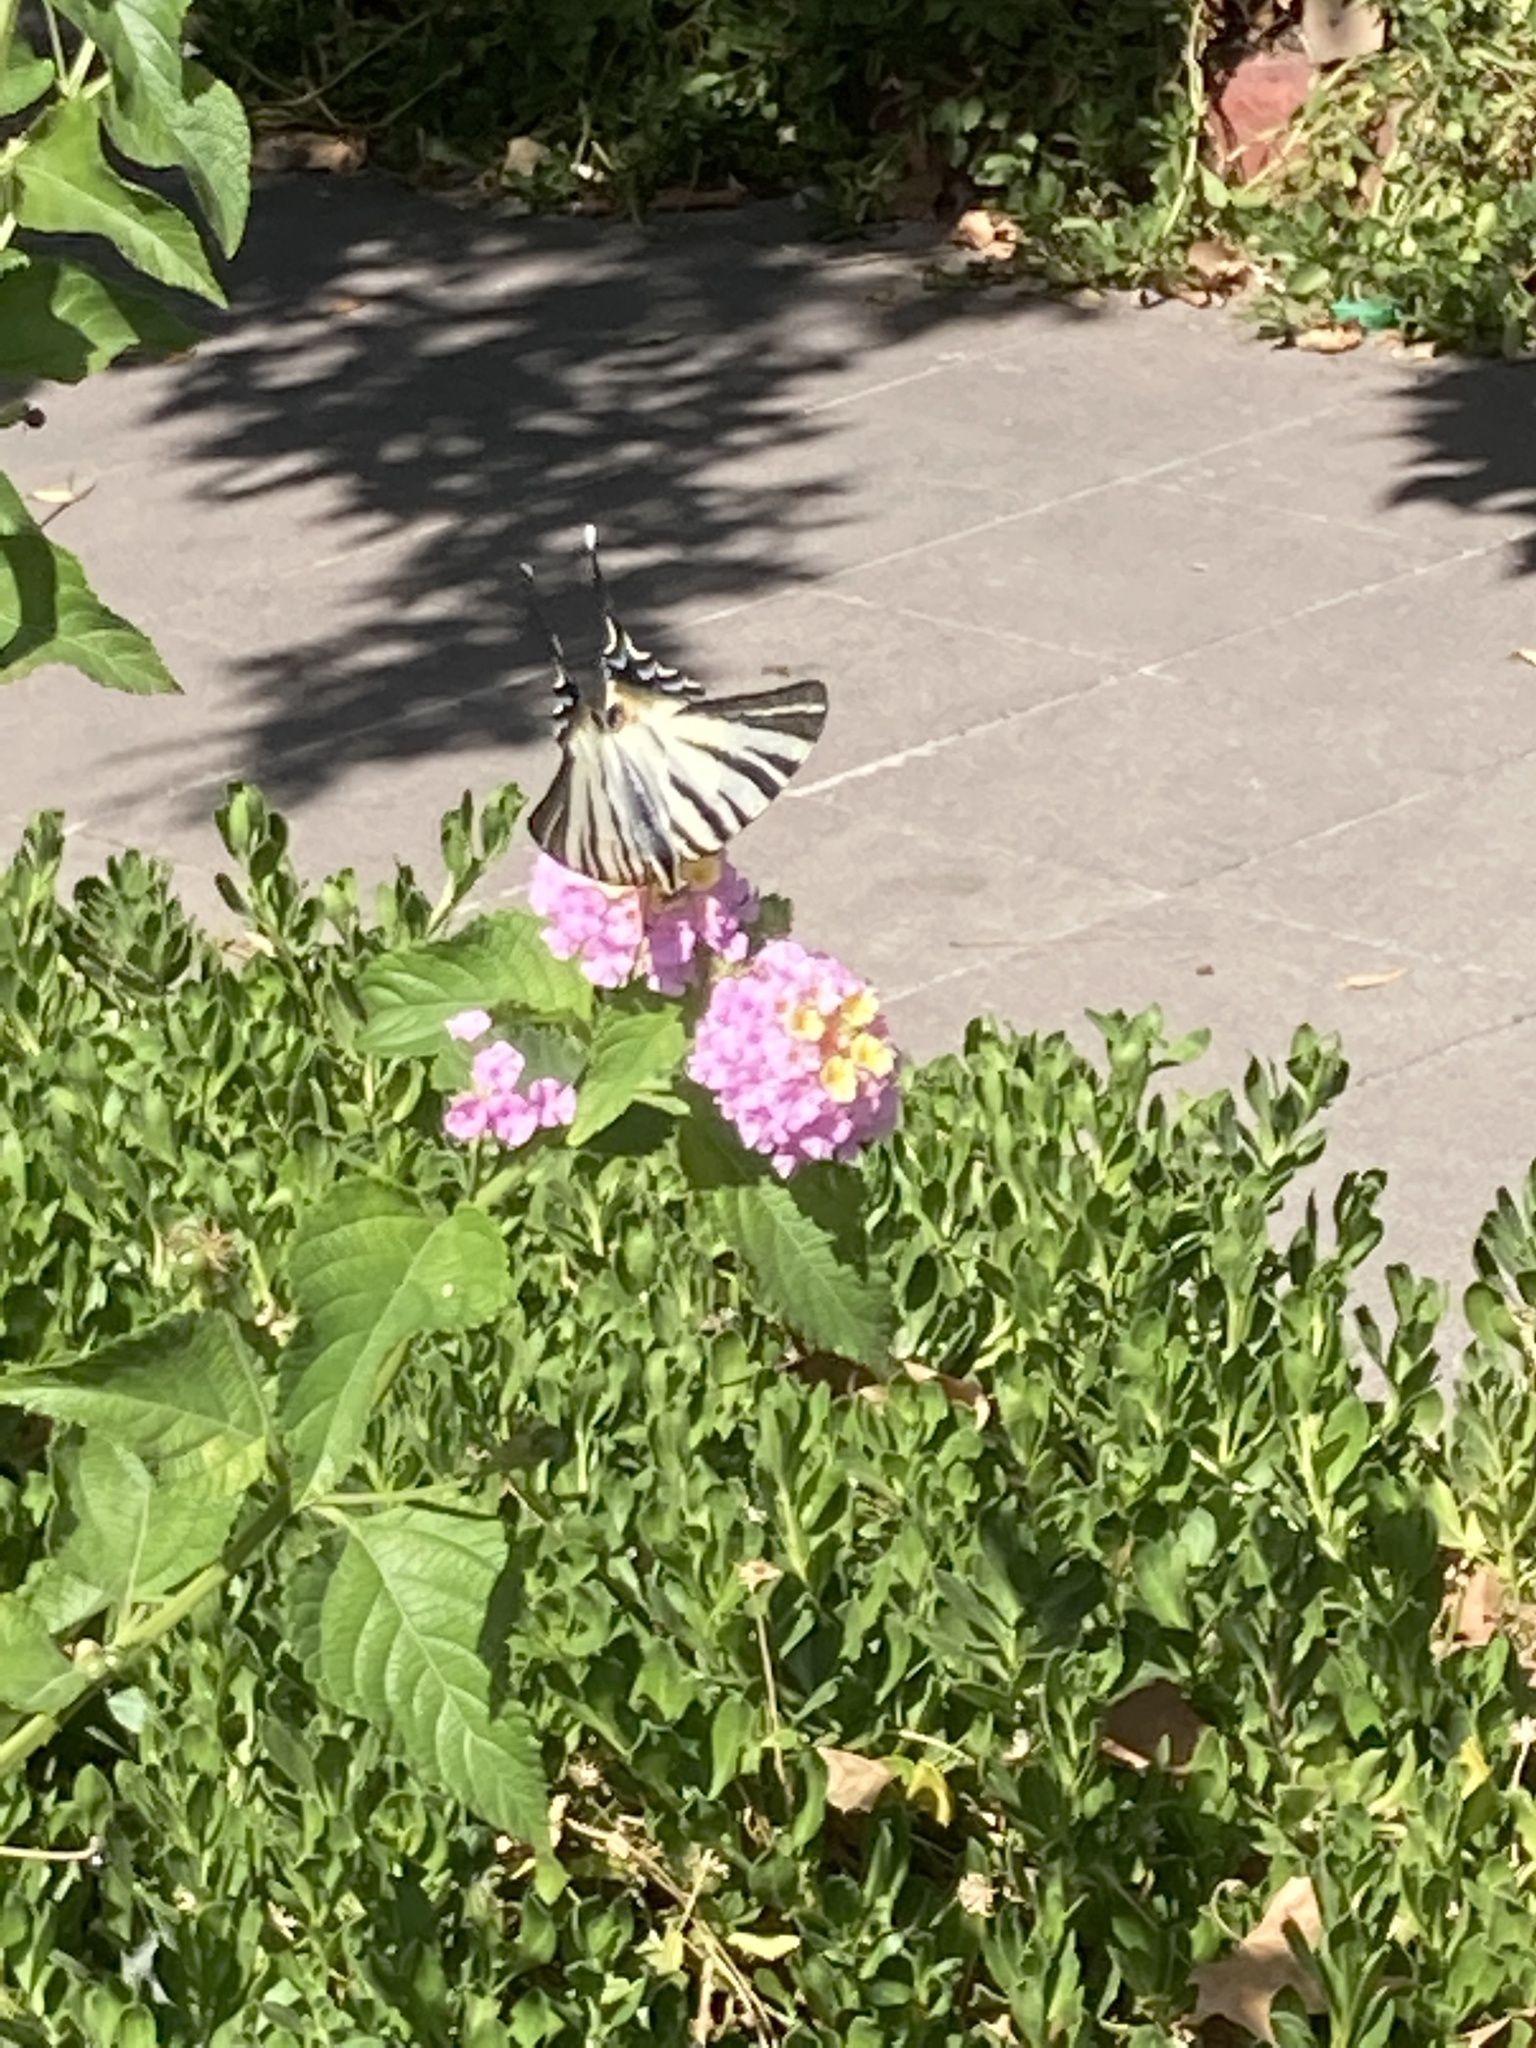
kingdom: Animalia
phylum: Arthropoda
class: Insecta
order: Lepidoptera
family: Papilionidae
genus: Iphiclides
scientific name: Iphiclides podalirius
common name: Scarce swallowtail
